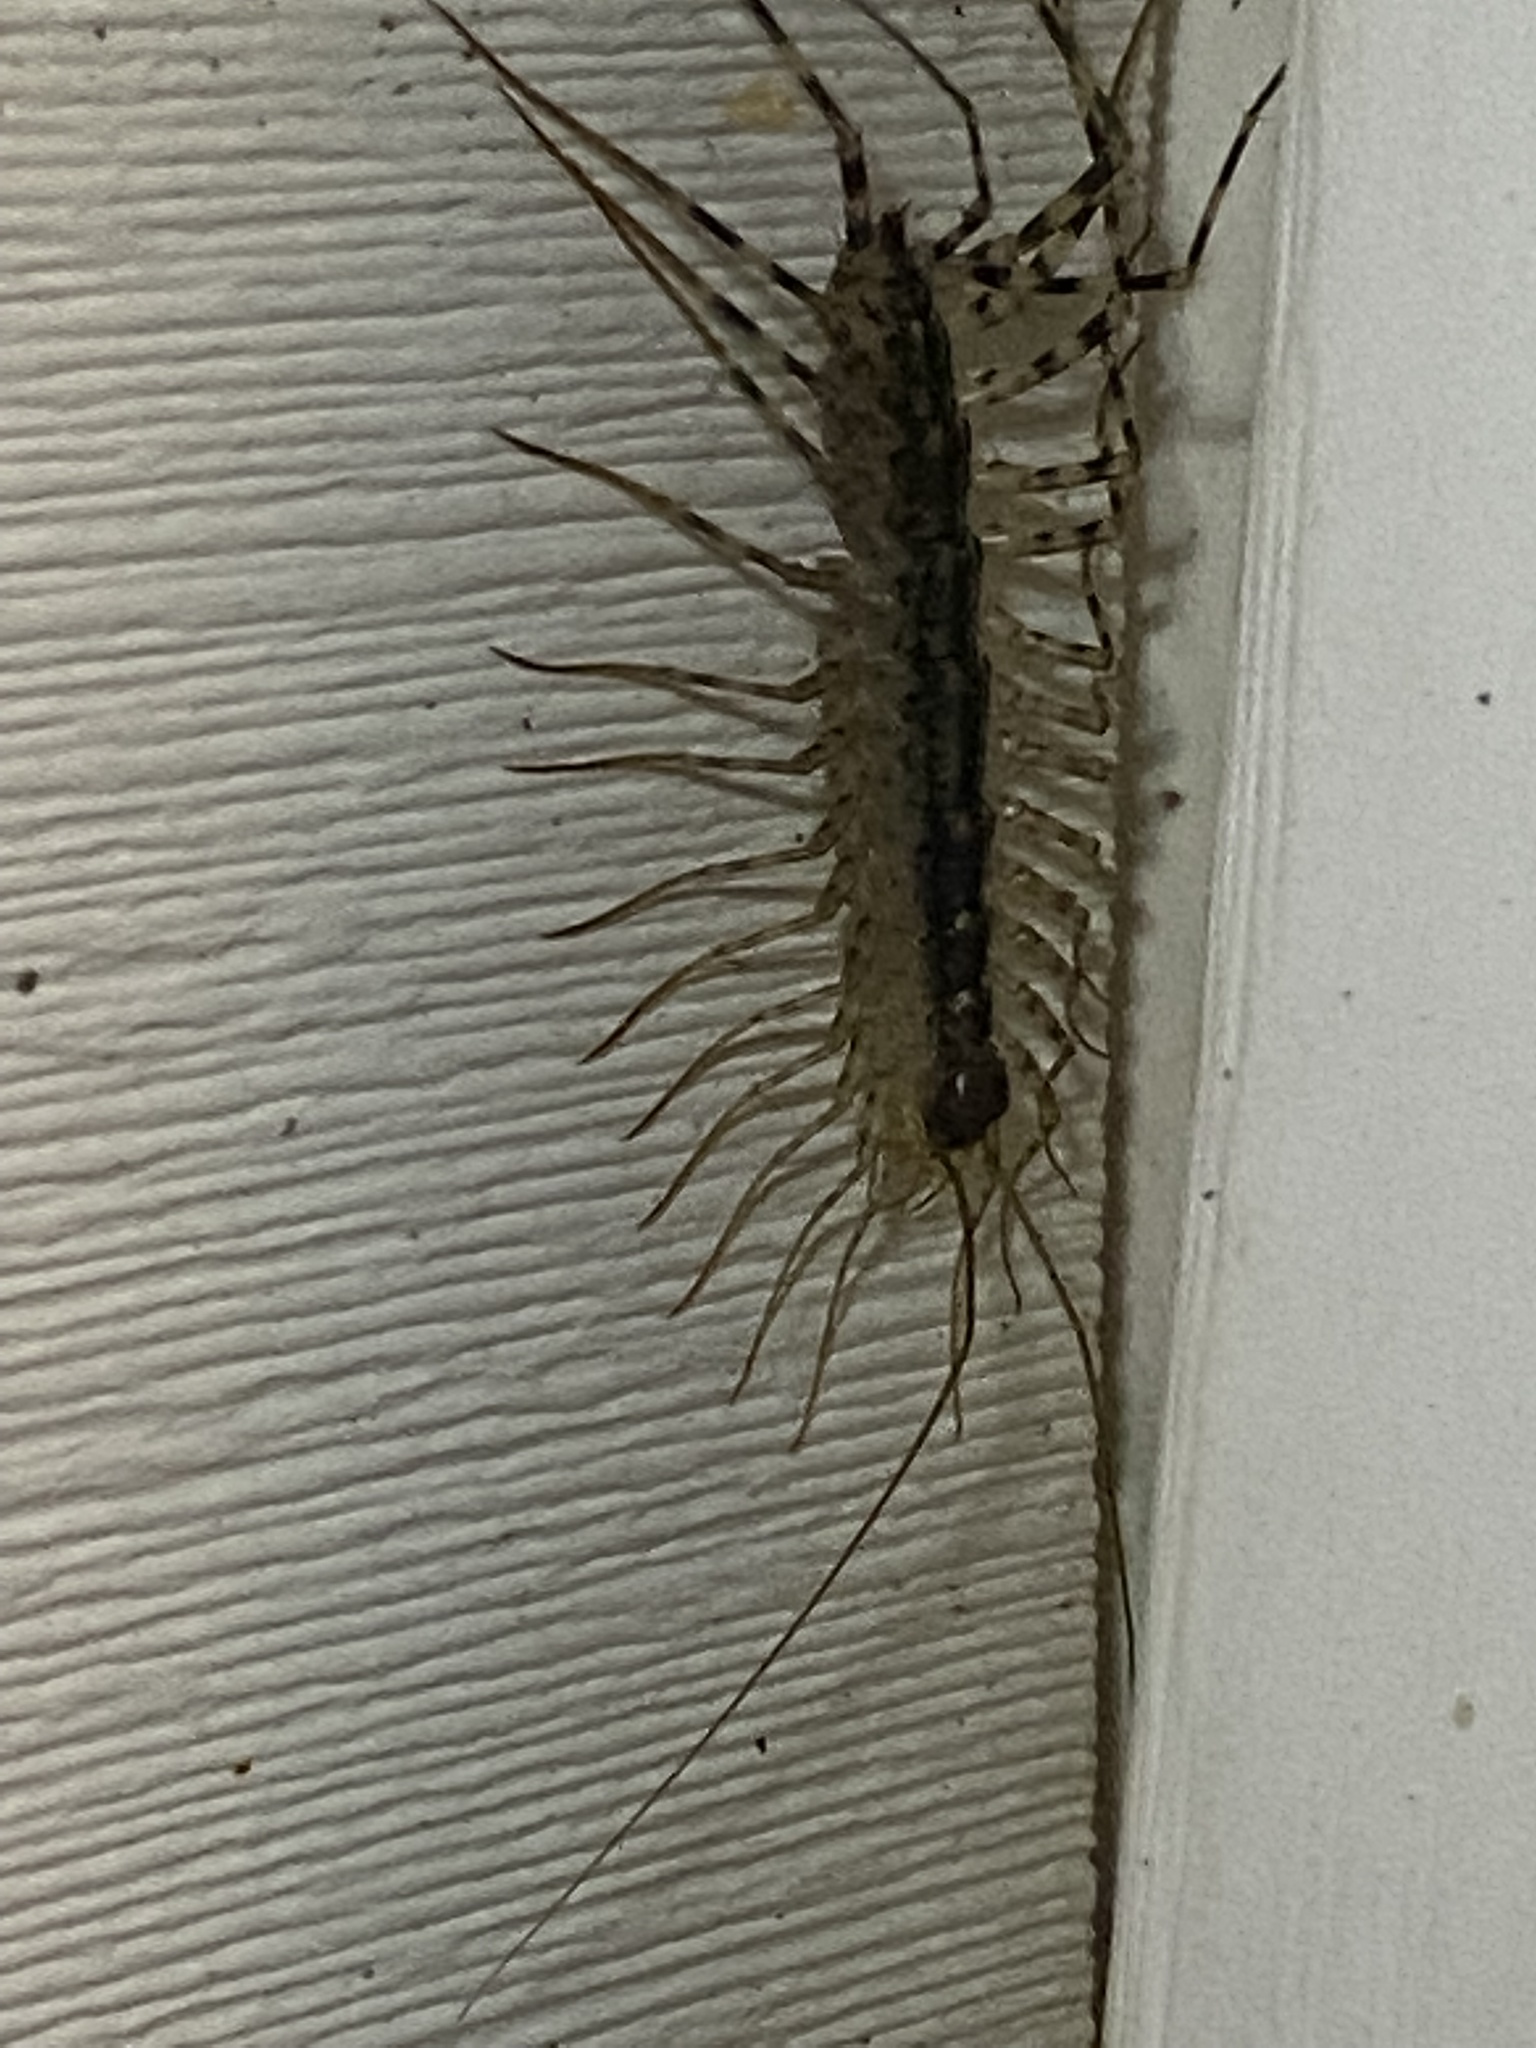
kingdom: Animalia
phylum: Arthropoda
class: Chilopoda
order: Scutigeromorpha
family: Scutigeridae
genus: Scutigera
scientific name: Scutigera coleoptrata
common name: House centipede
